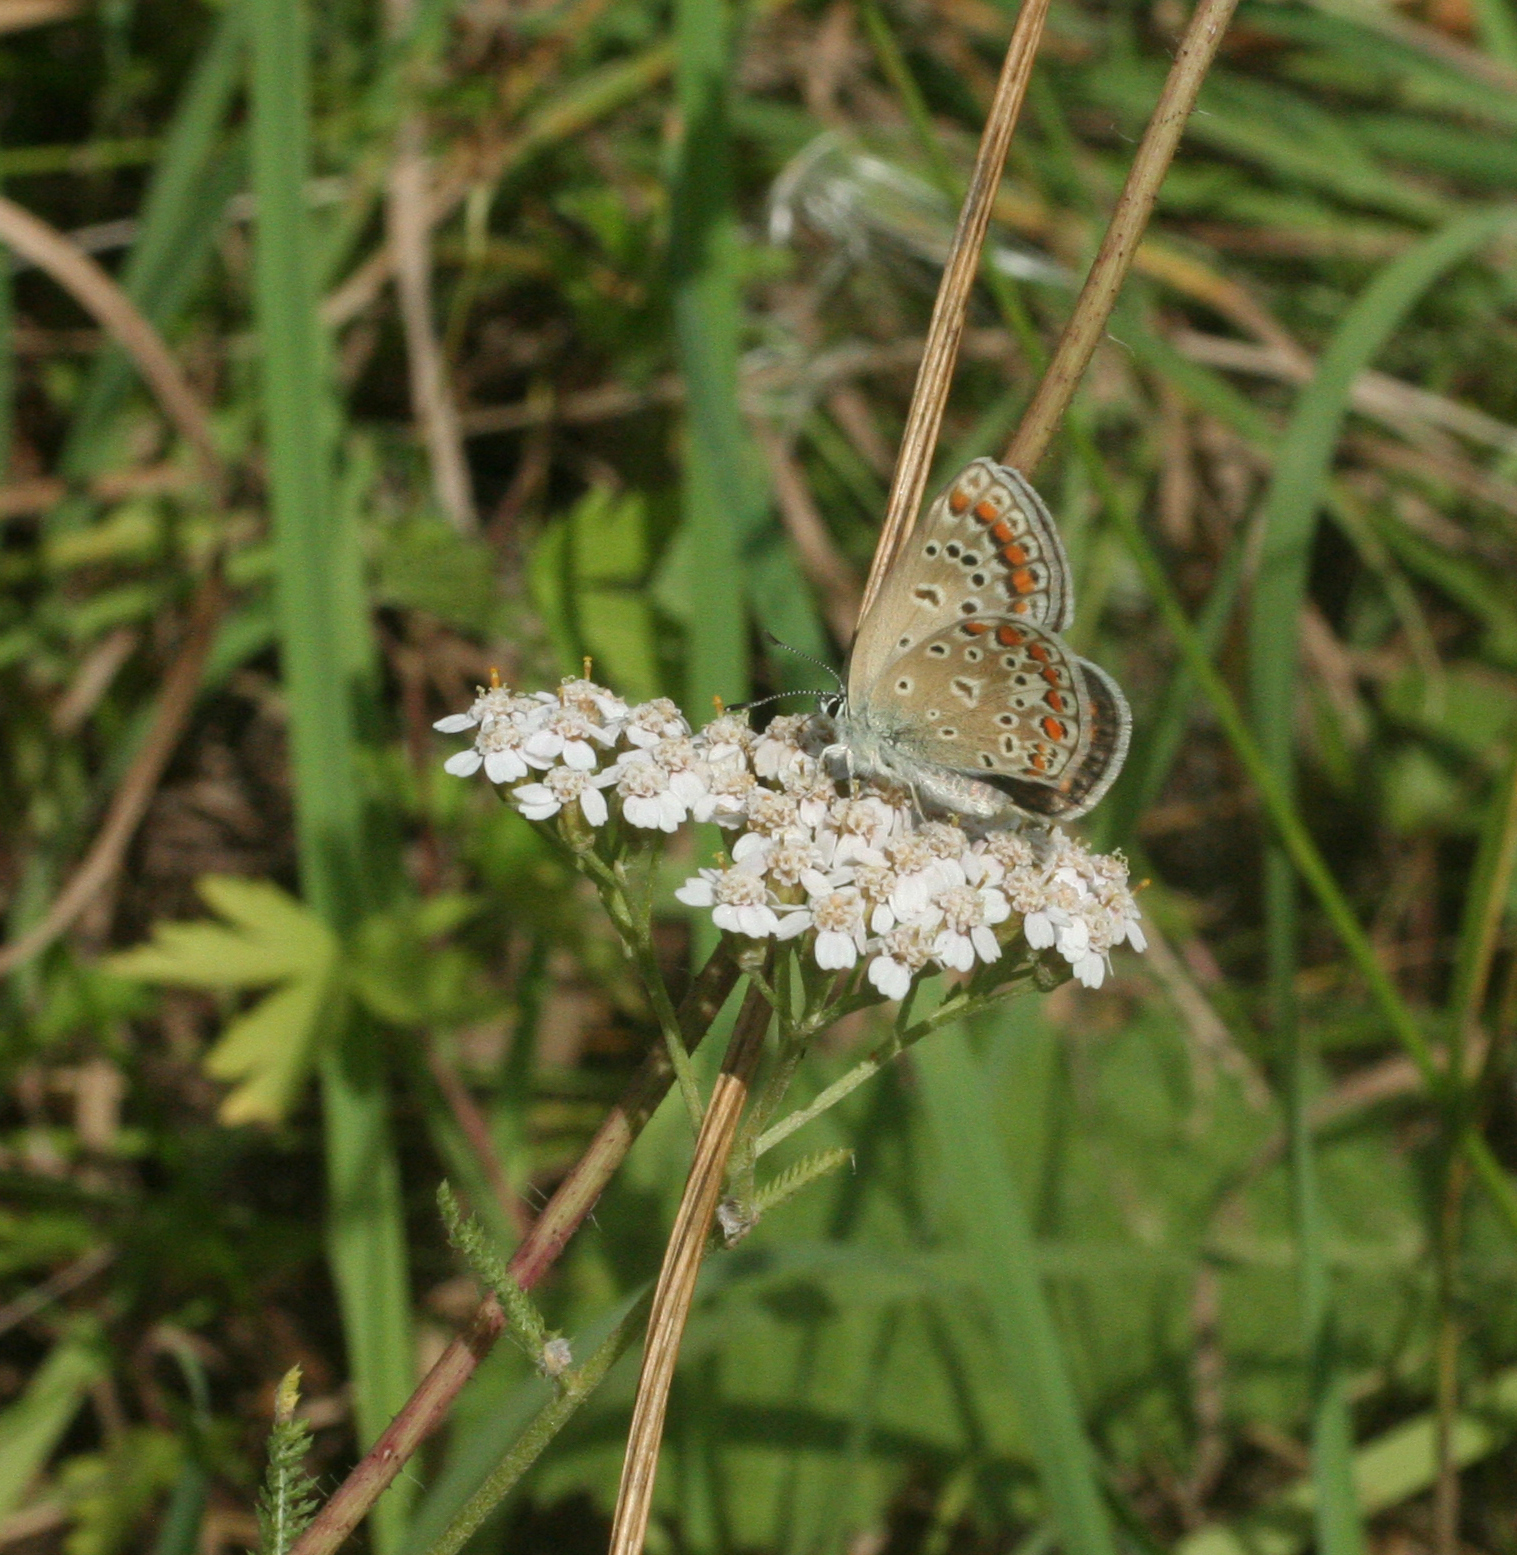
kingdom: Animalia
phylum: Arthropoda
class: Insecta
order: Lepidoptera
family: Lycaenidae
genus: Polyommatus
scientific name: Polyommatus icarus
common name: Common blue
